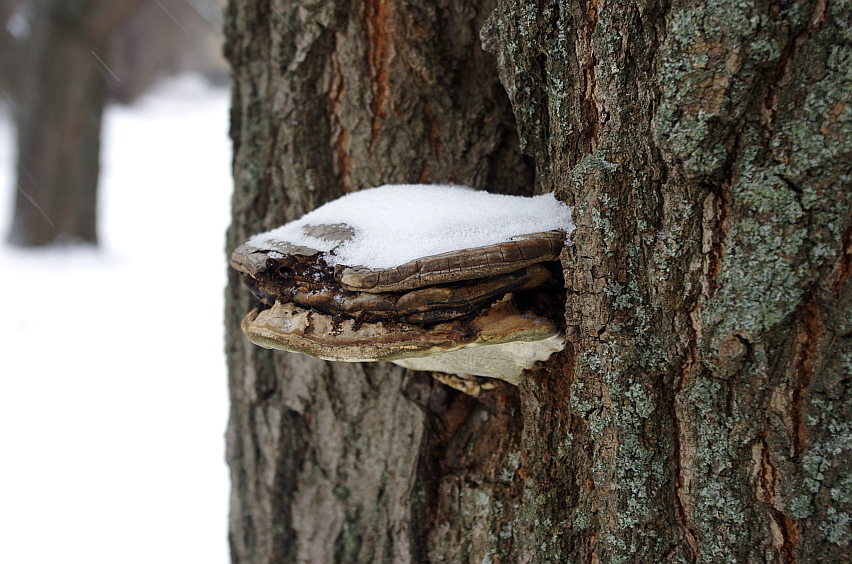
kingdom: Fungi
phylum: Basidiomycota
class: Agaricomycetes
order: Polyporales
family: Polyporaceae
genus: Fomes
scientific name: Fomes fomentarius
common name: Hoof fungus
